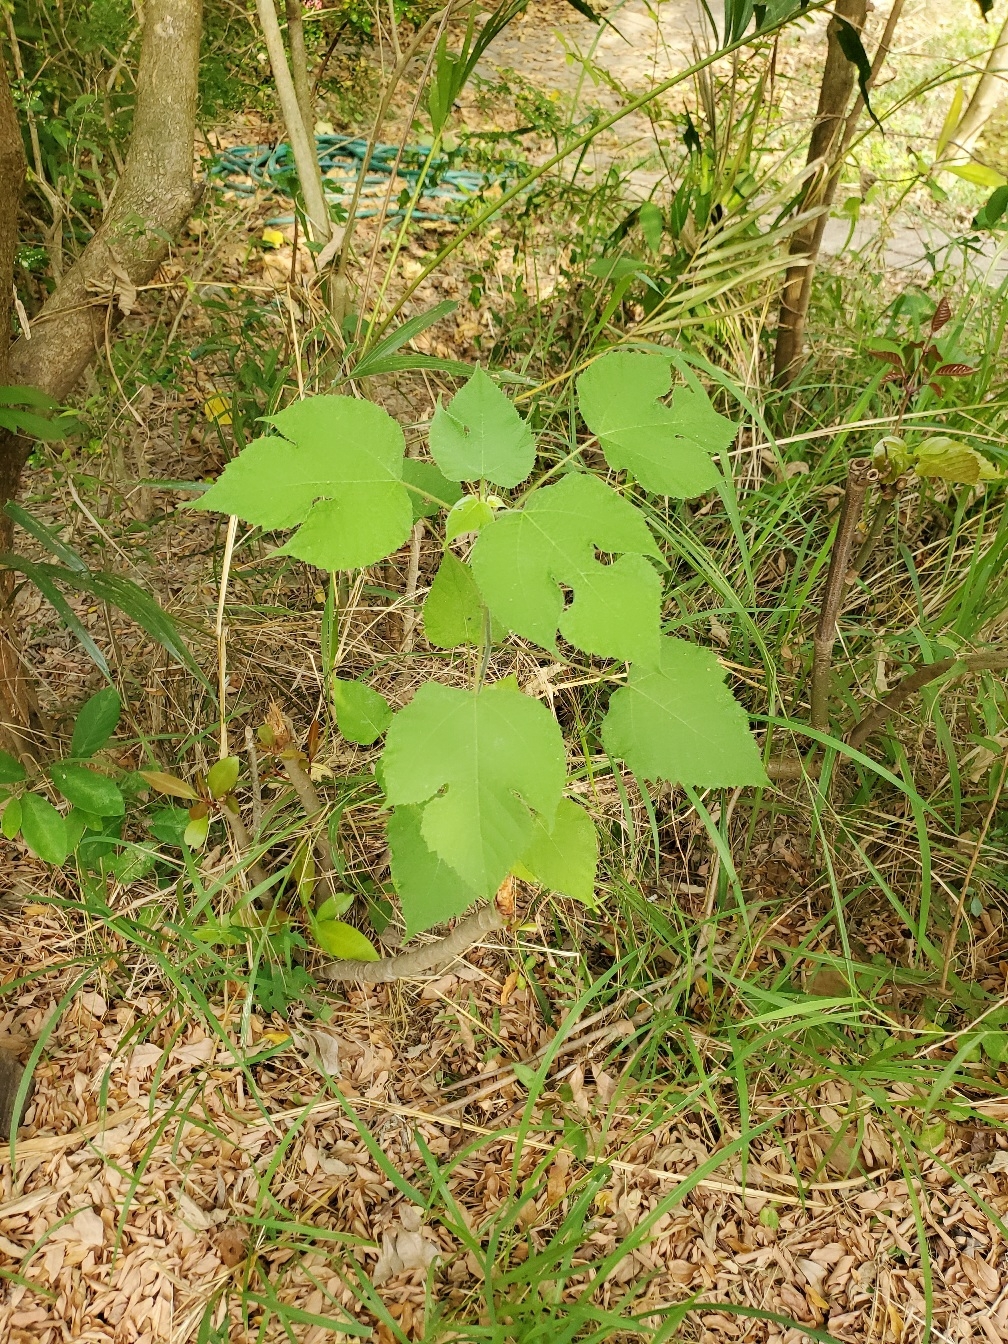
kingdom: Plantae
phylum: Tracheophyta
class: Magnoliopsida
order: Rosales
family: Moraceae
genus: Broussonetia
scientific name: Broussonetia papyrifera
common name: Paper mulberry
